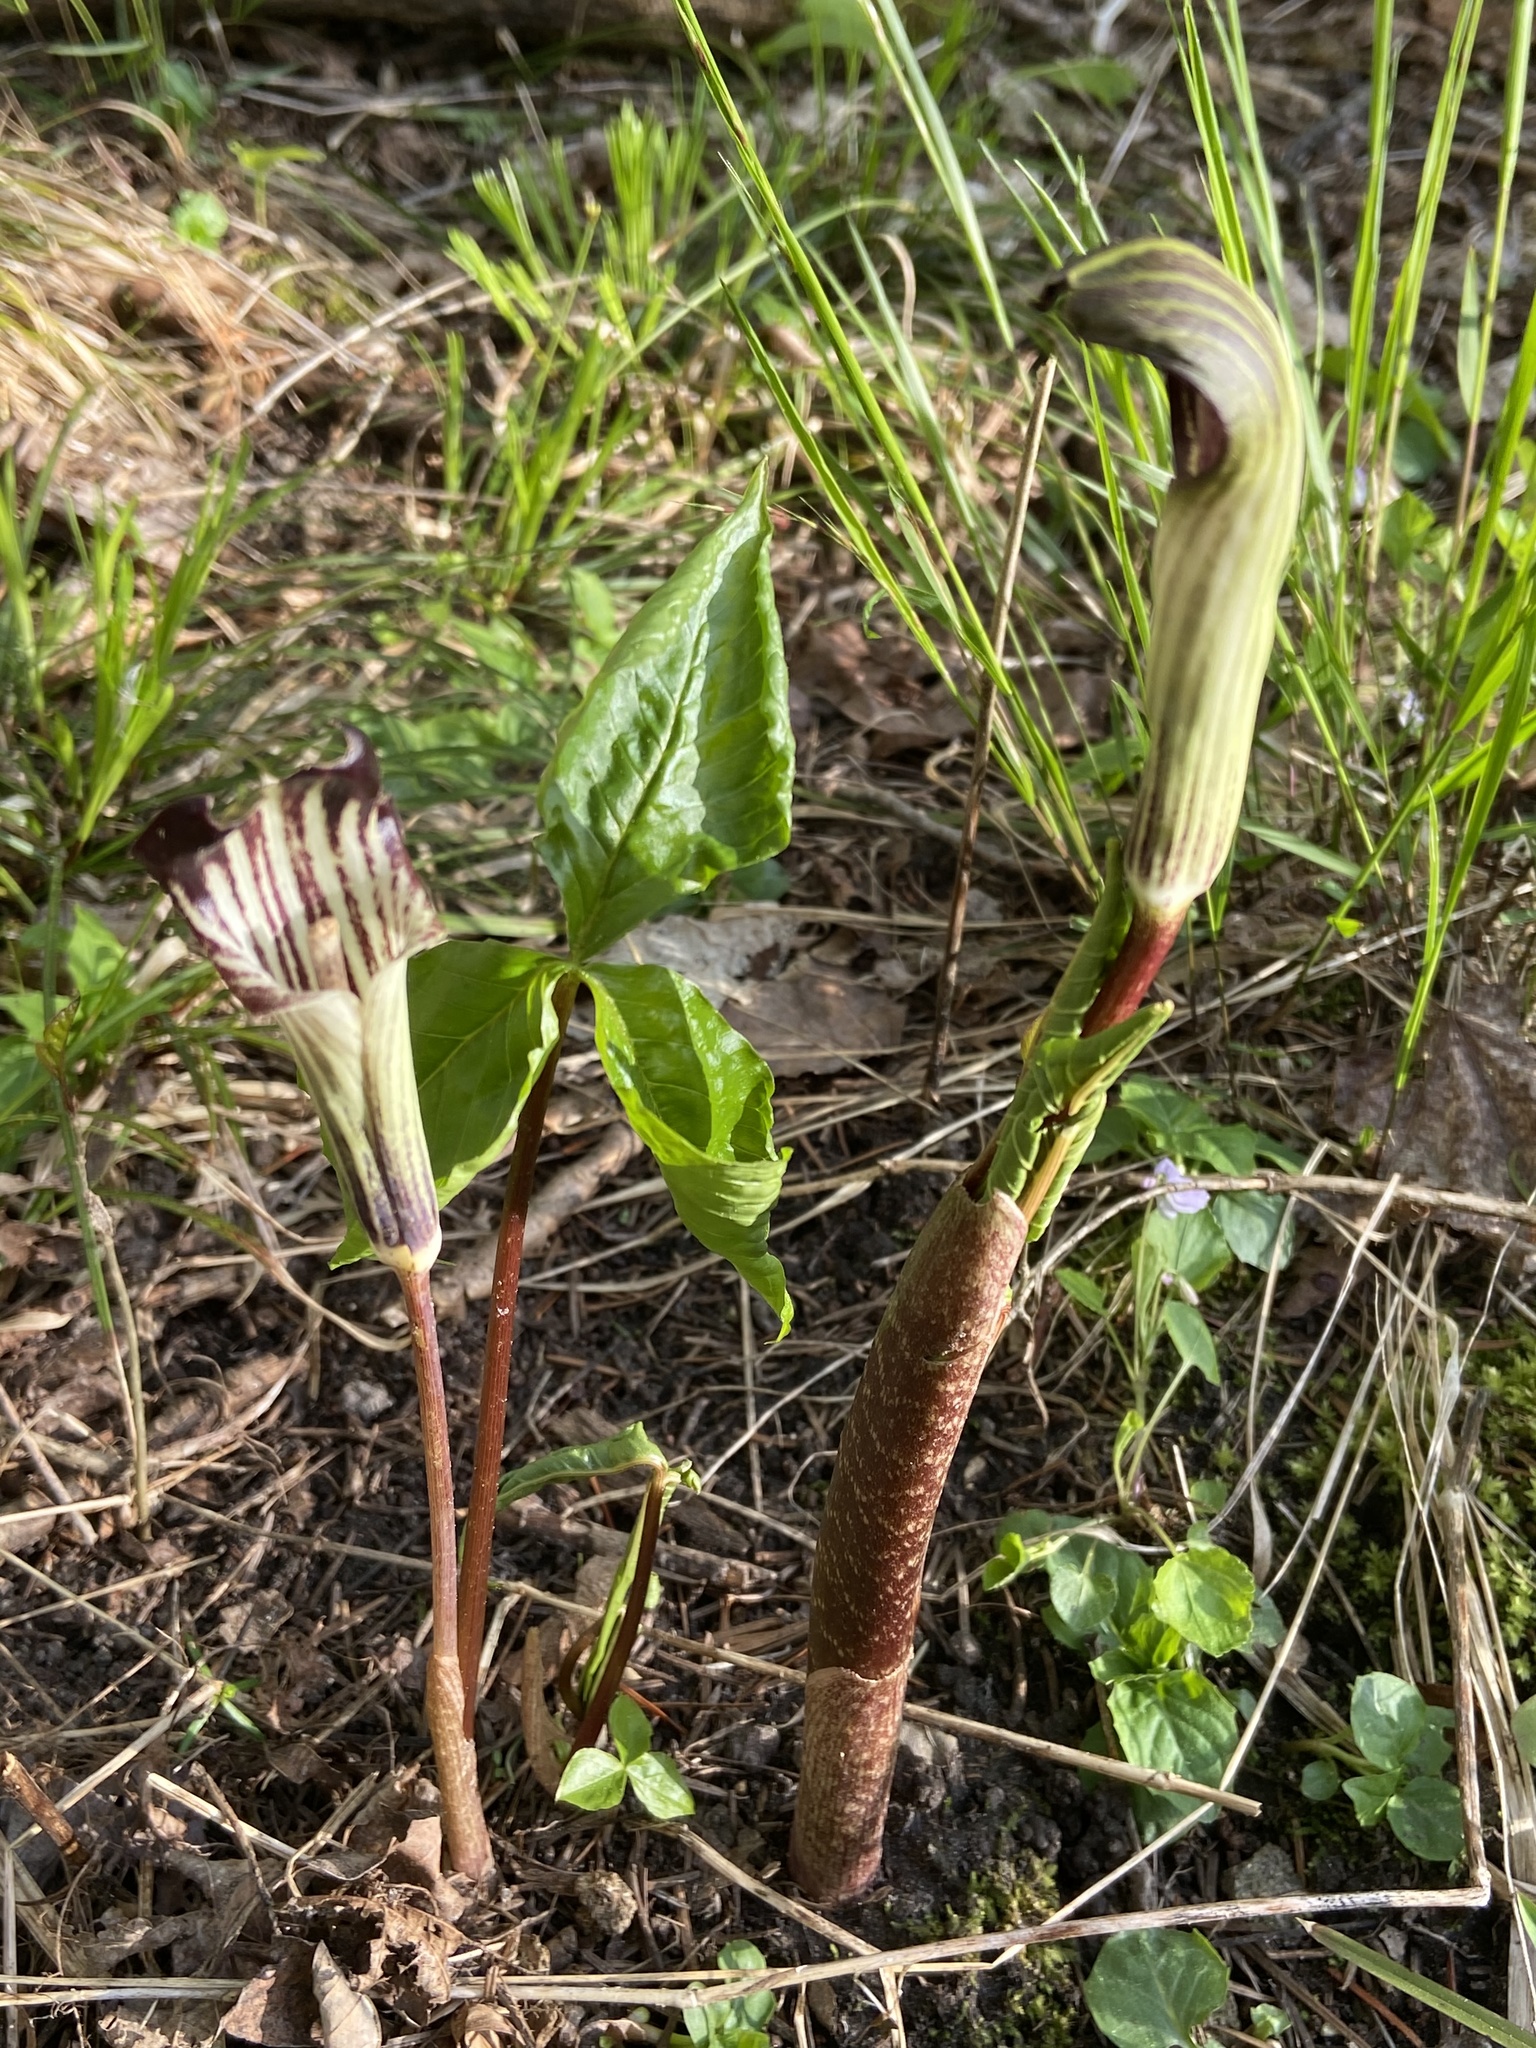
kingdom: Plantae
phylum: Tracheophyta
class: Liliopsida
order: Alismatales
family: Araceae
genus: Arisaema
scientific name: Arisaema triphyllum
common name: Jack-in-the-pulpit
